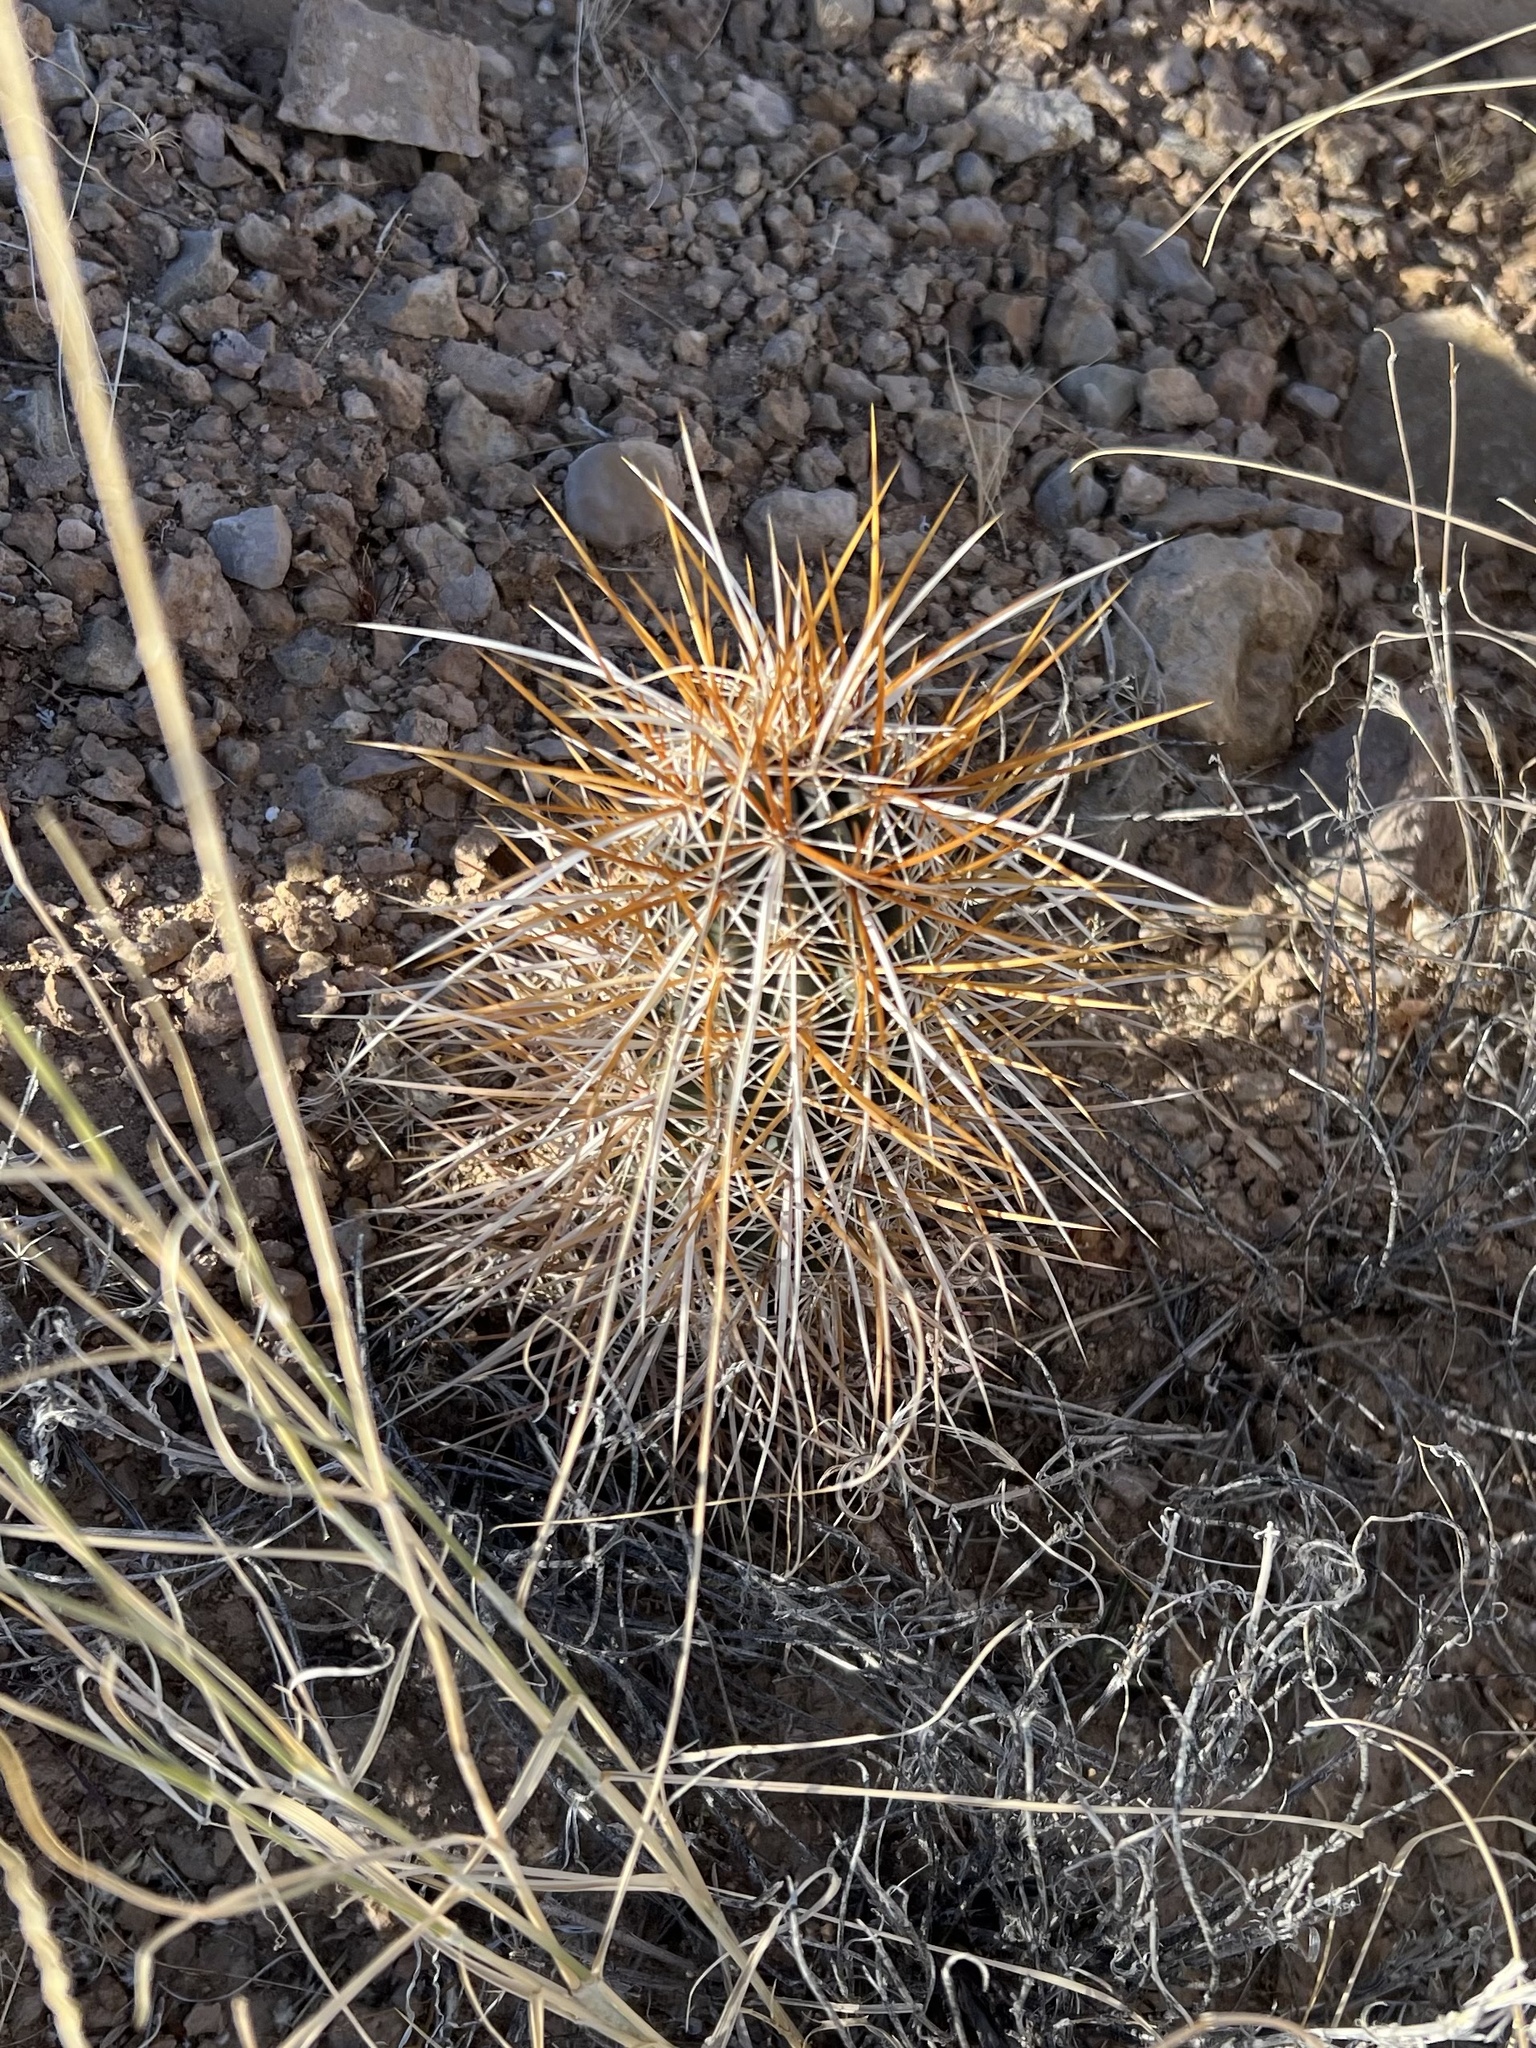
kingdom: Plantae
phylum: Tracheophyta
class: Magnoliopsida
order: Caryophyllales
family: Cactaceae
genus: Echinocereus
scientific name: Echinocereus engelmannii
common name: Engelmann's hedgehog cactus
